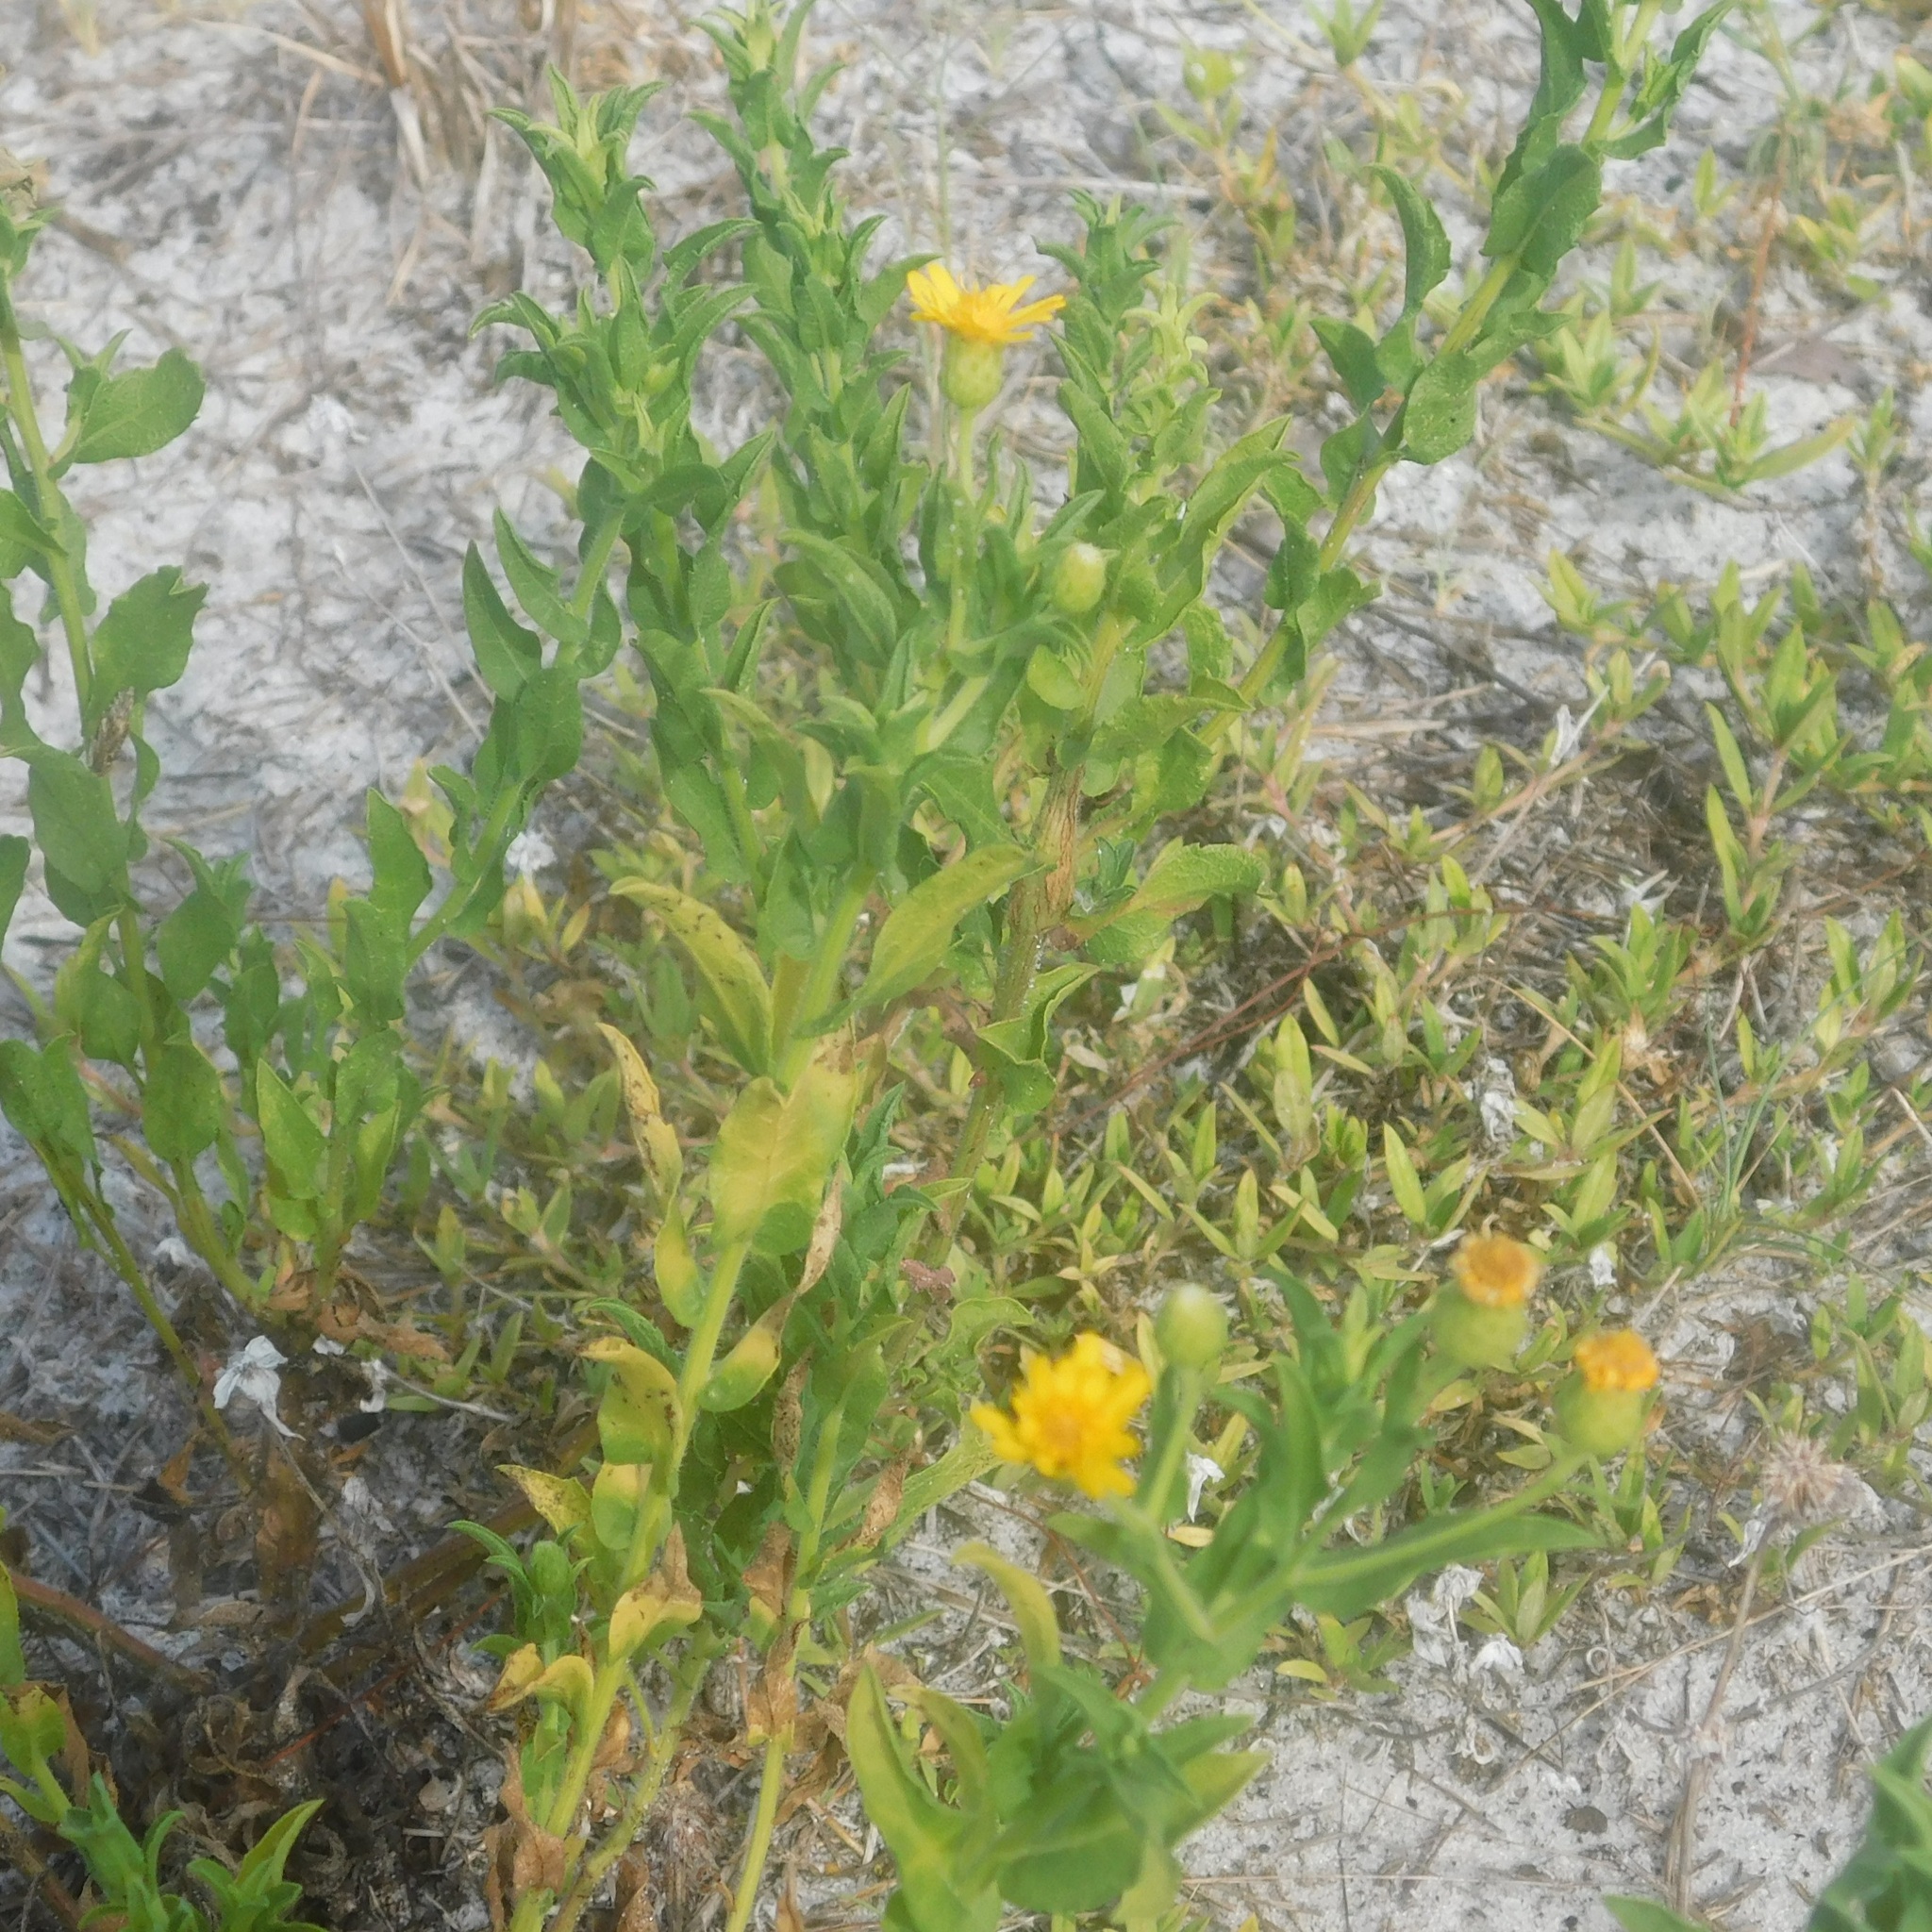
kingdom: Plantae
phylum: Tracheophyta
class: Magnoliopsida
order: Asterales
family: Asteraceae
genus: Heterotheca
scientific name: Heterotheca subaxillaris
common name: Camphorweed
